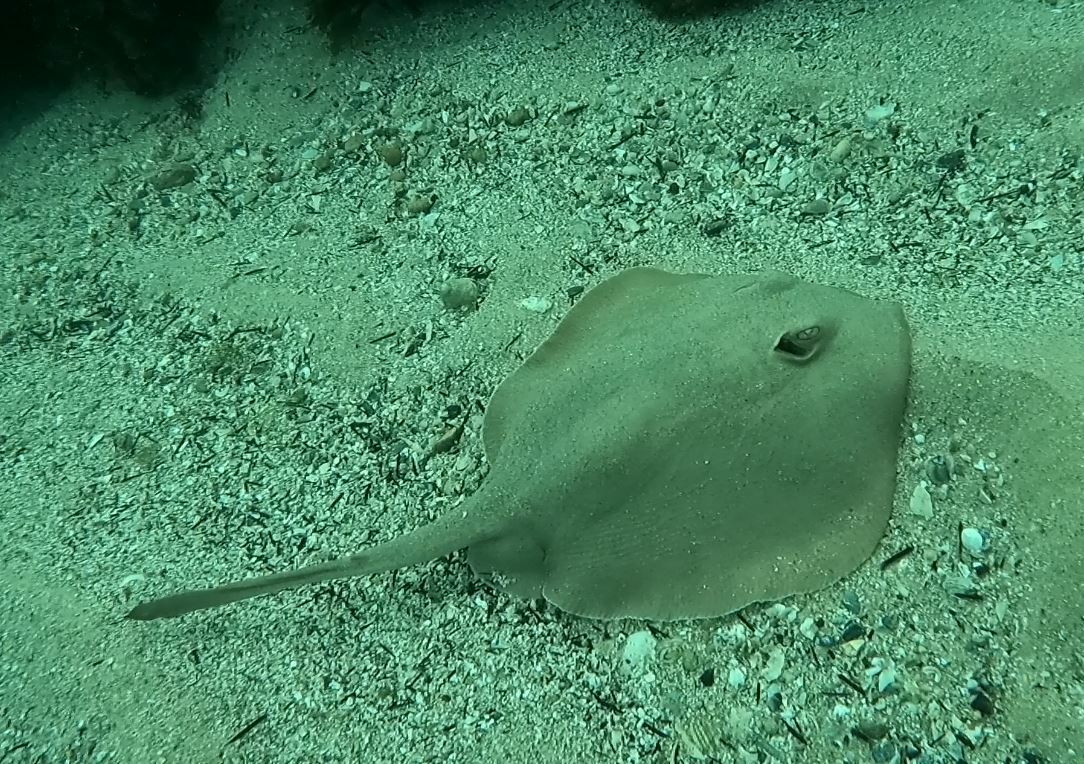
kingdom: Animalia
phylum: Chordata
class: Elasmobranchii
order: Myliobatiformes
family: Urolophidae
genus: Trygonoptera
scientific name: Trygonoptera testacea
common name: Common stingaree
